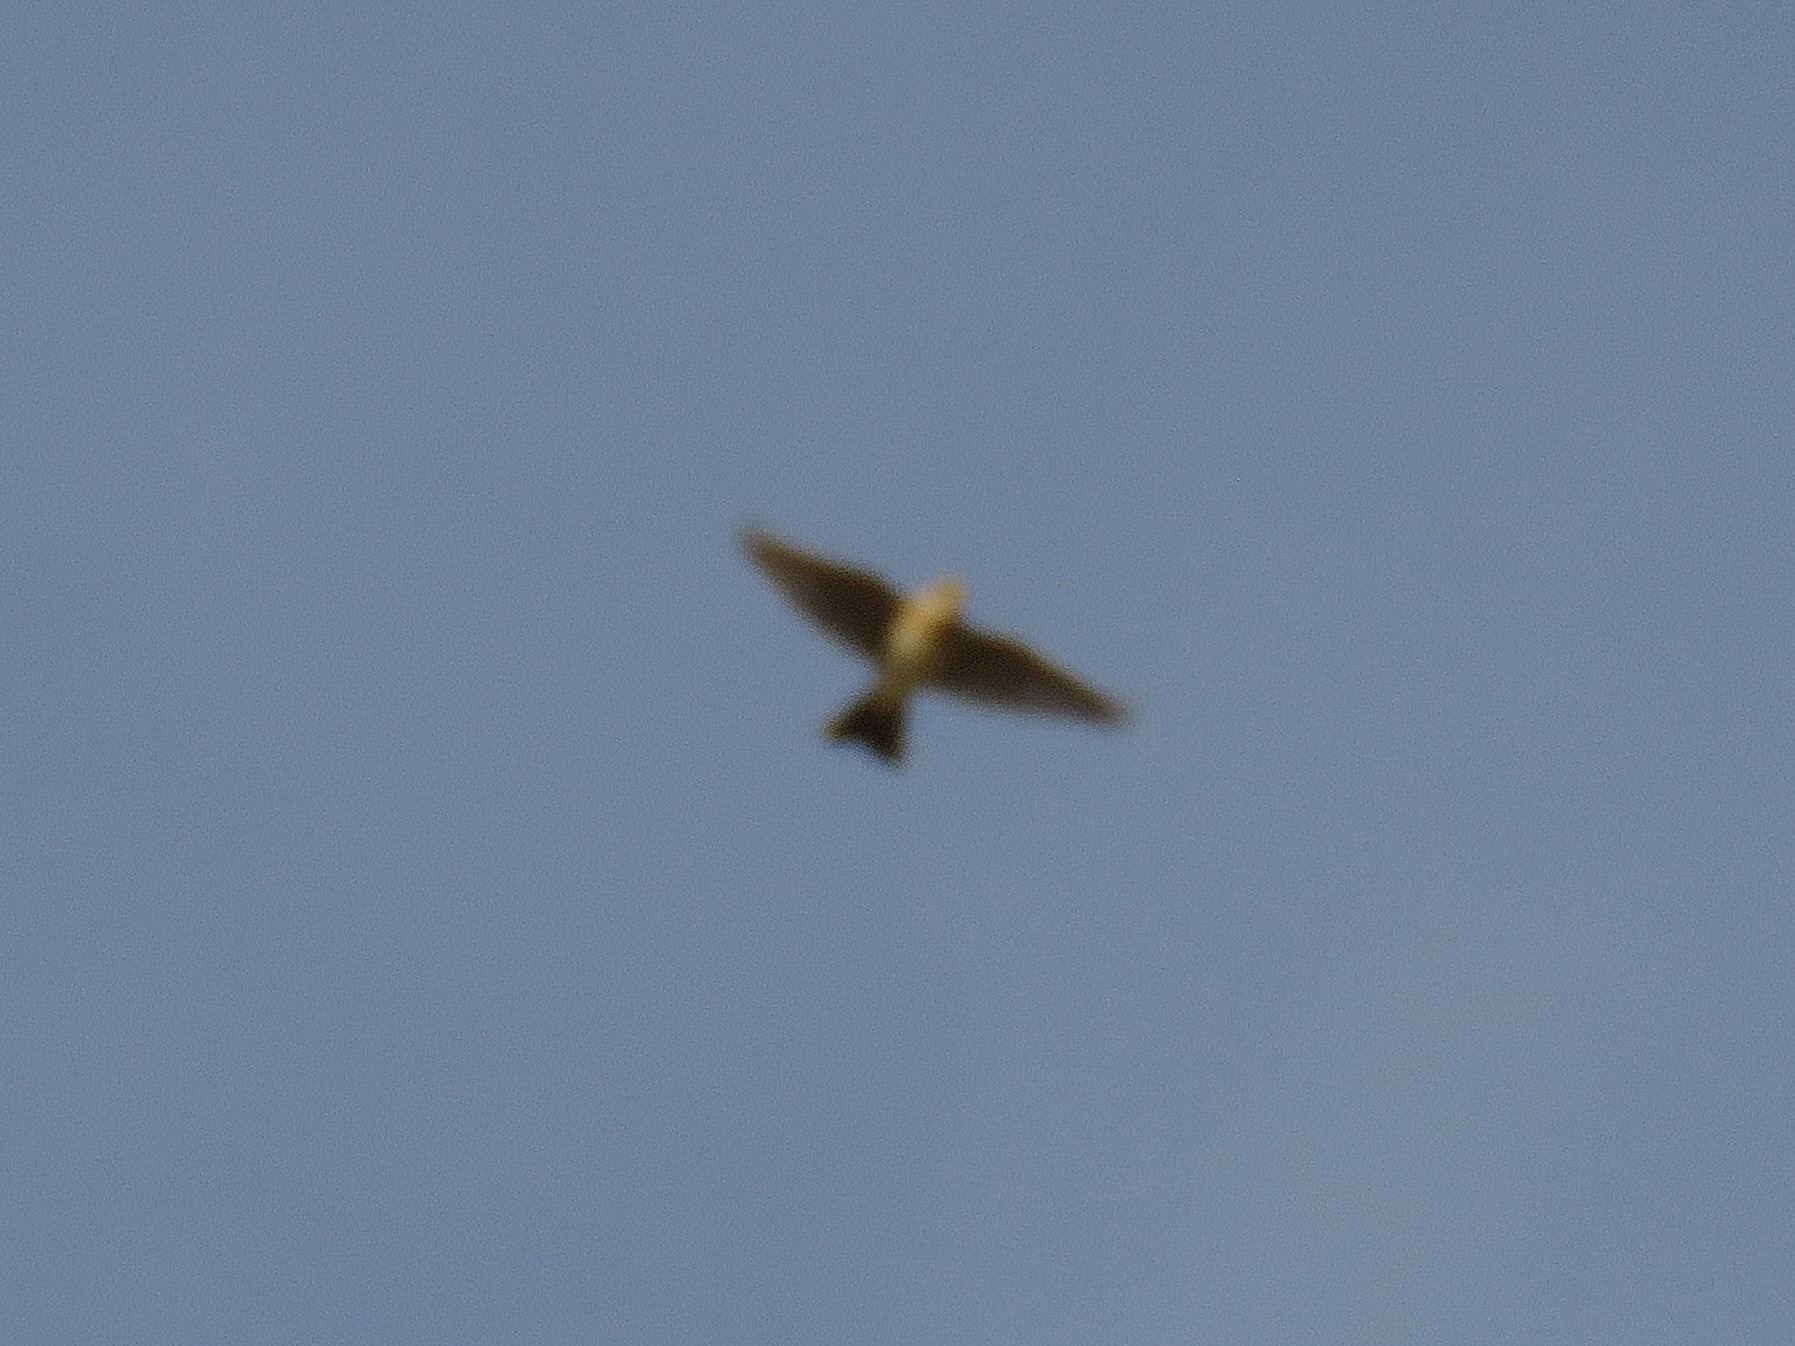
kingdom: Animalia
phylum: Chordata
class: Aves
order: Passeriformes
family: Alaudidae
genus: Alauda
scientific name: Alauda arvensis
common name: Eurasian skylark
